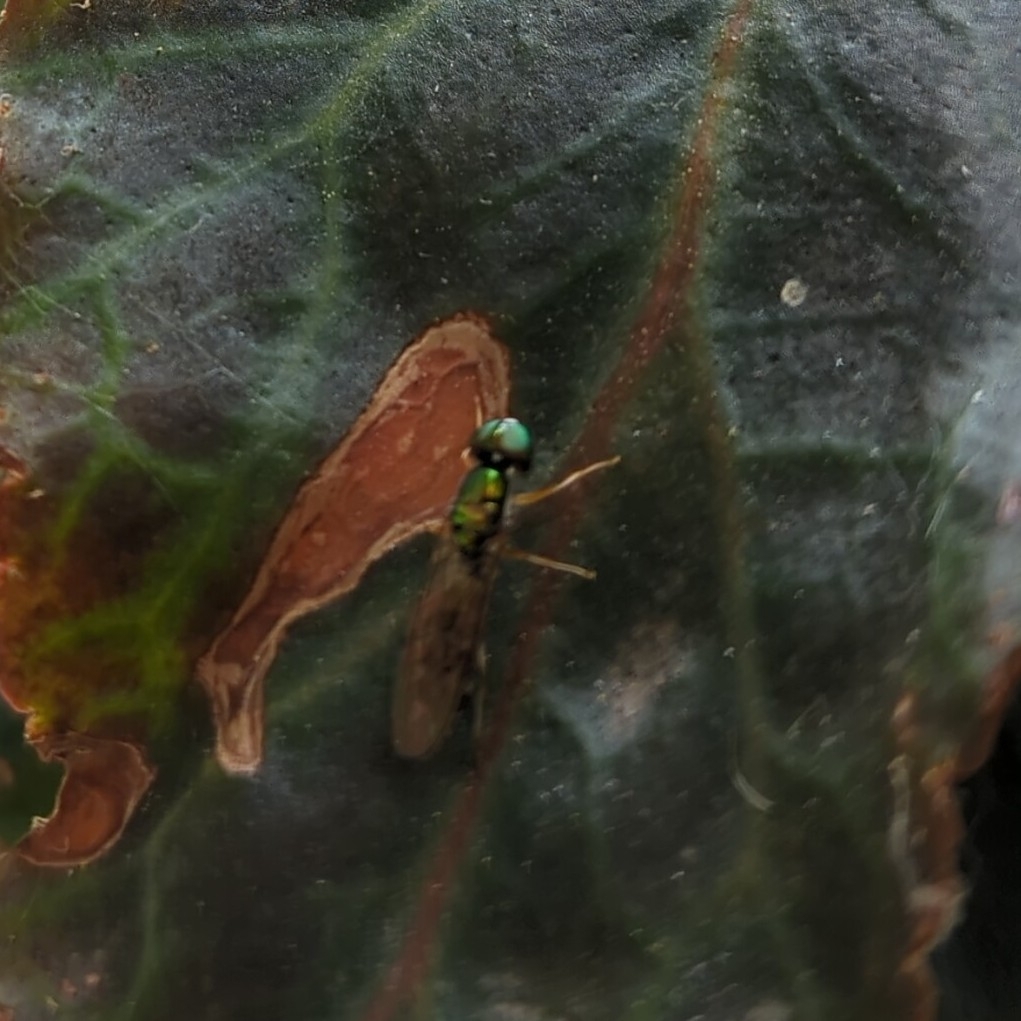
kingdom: Animalia
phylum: Arthropoda
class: Insecta
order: Diptera
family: Stratiomyidae
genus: Sargus
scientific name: Sargus fasciatus
